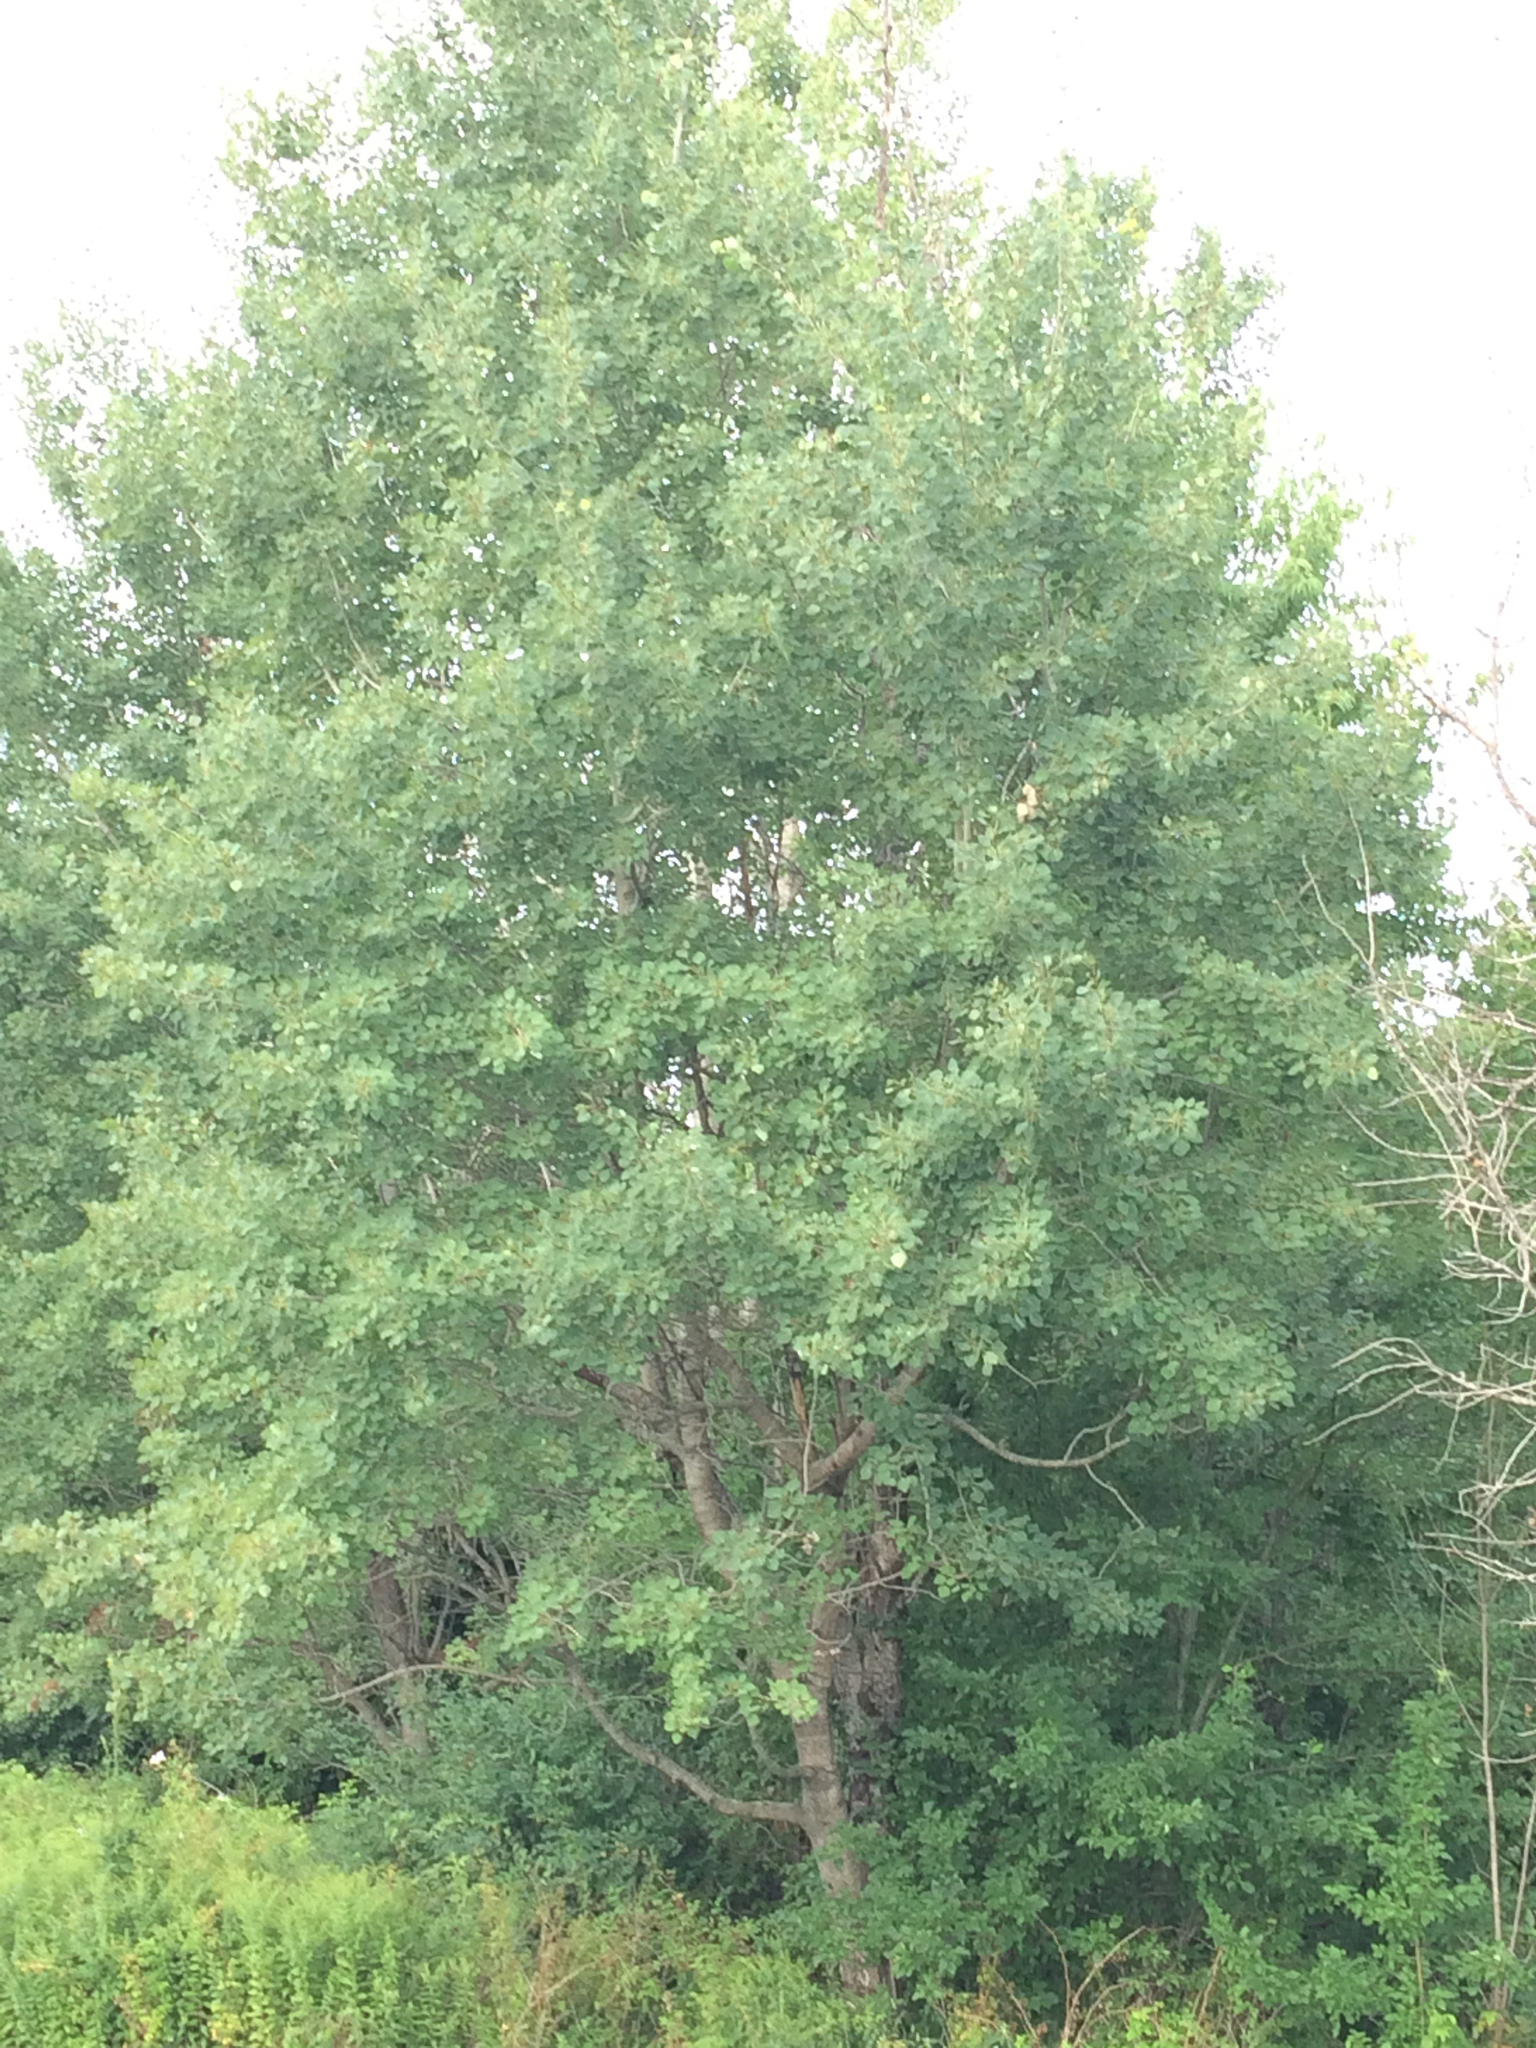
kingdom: Plantae
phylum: Tracheophyta
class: Magnoliopsida
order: Malpighiales
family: Salicaceae
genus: Populus
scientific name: Populus tremuloides
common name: Quaking aspen
